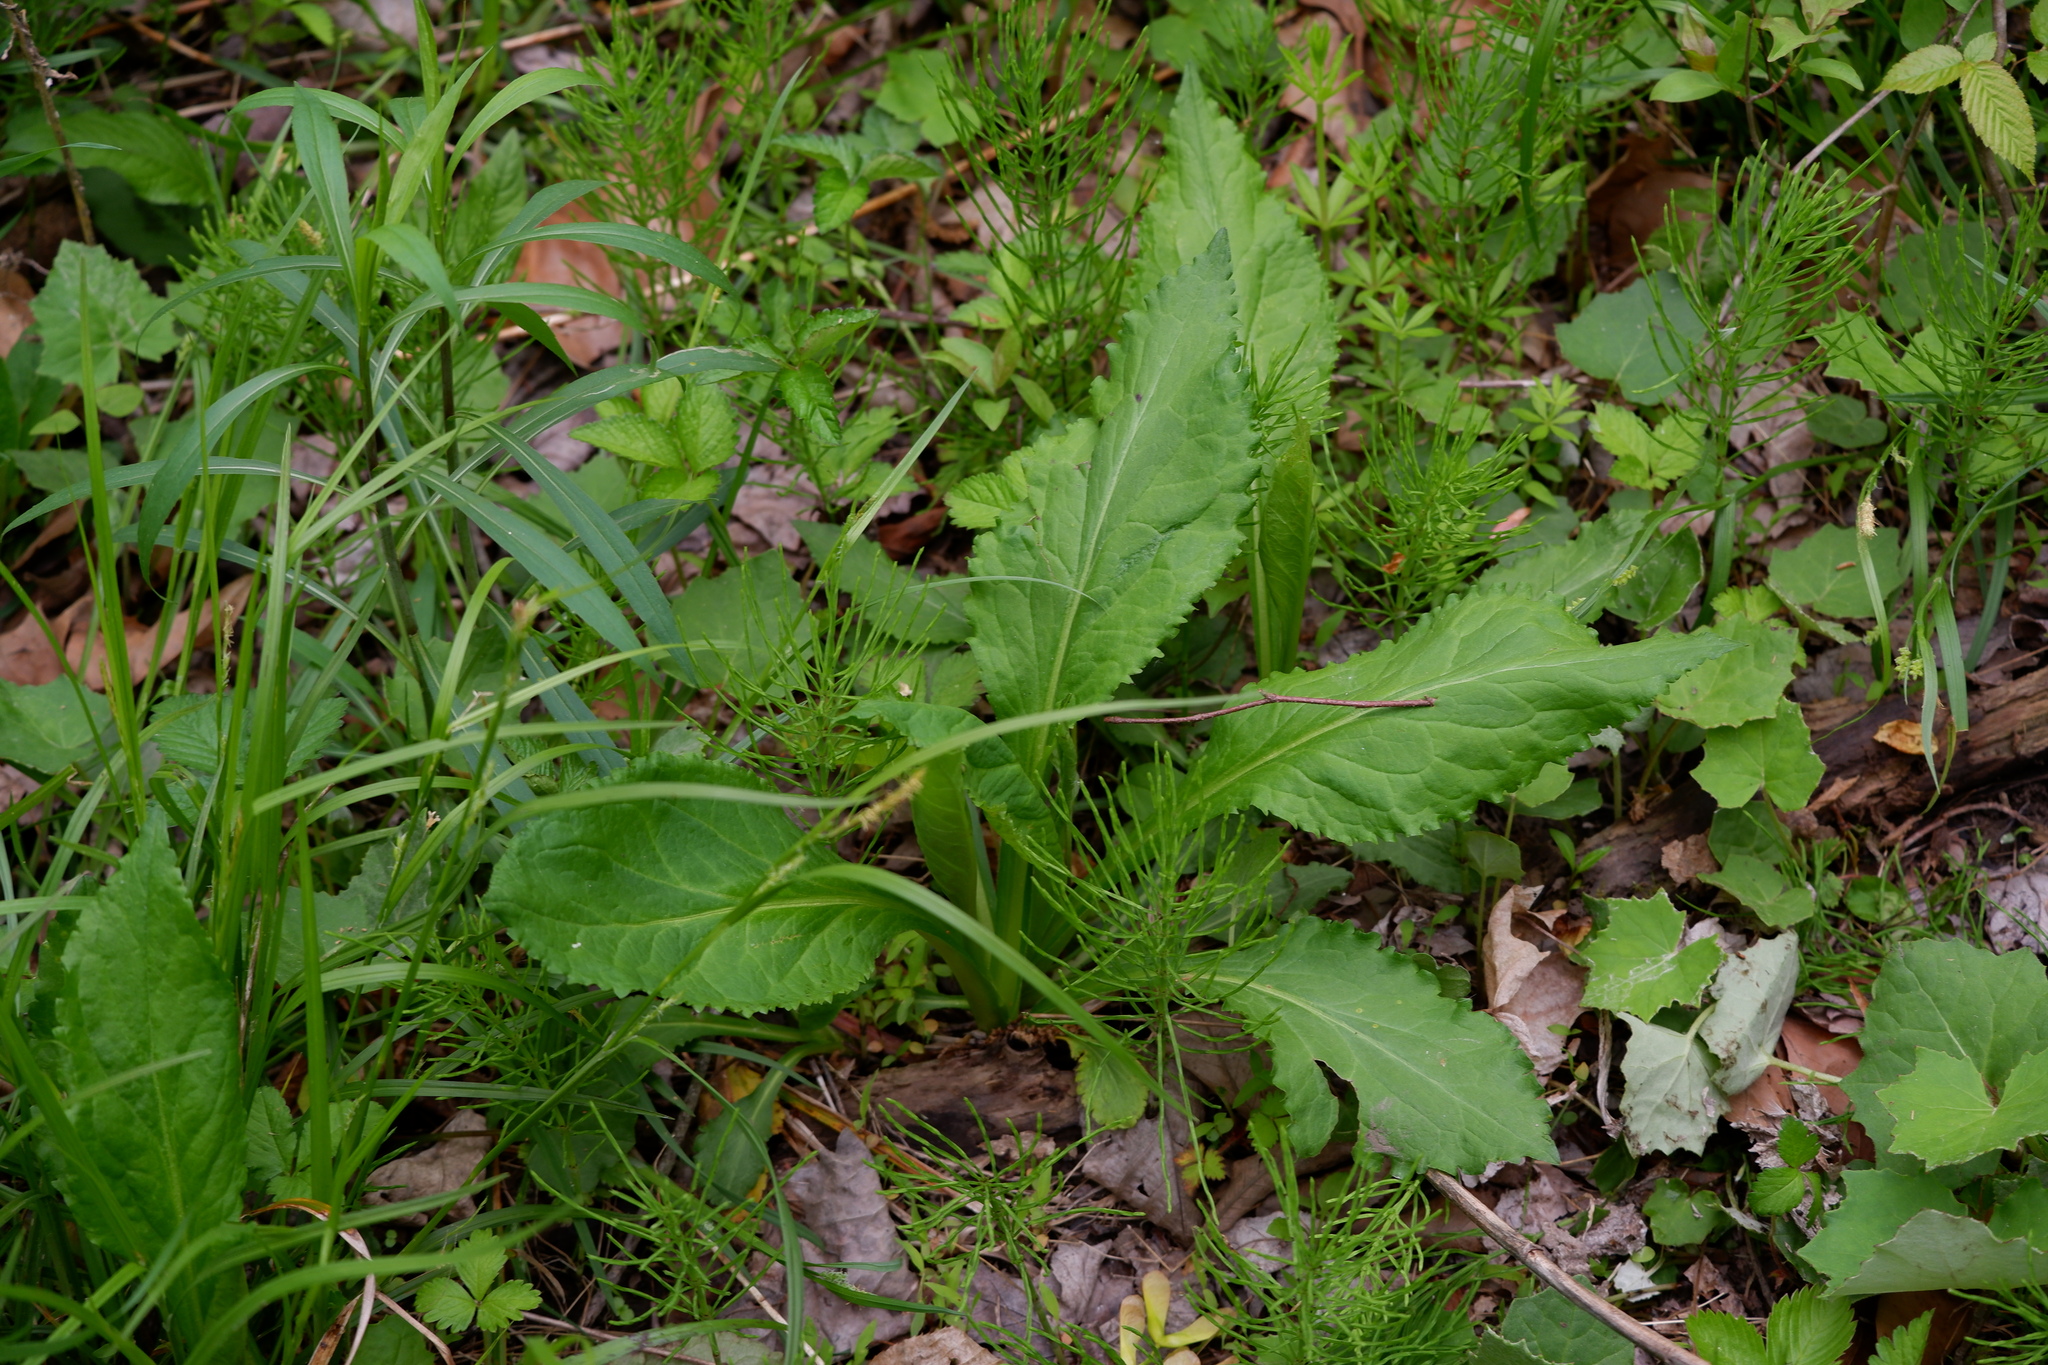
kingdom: Plantae
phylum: Tracheophyta
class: Magnoliopsida
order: Asterales
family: Asteraceae
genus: Solidago
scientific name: Solidago patula
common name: Rough-leaf goldenrod
